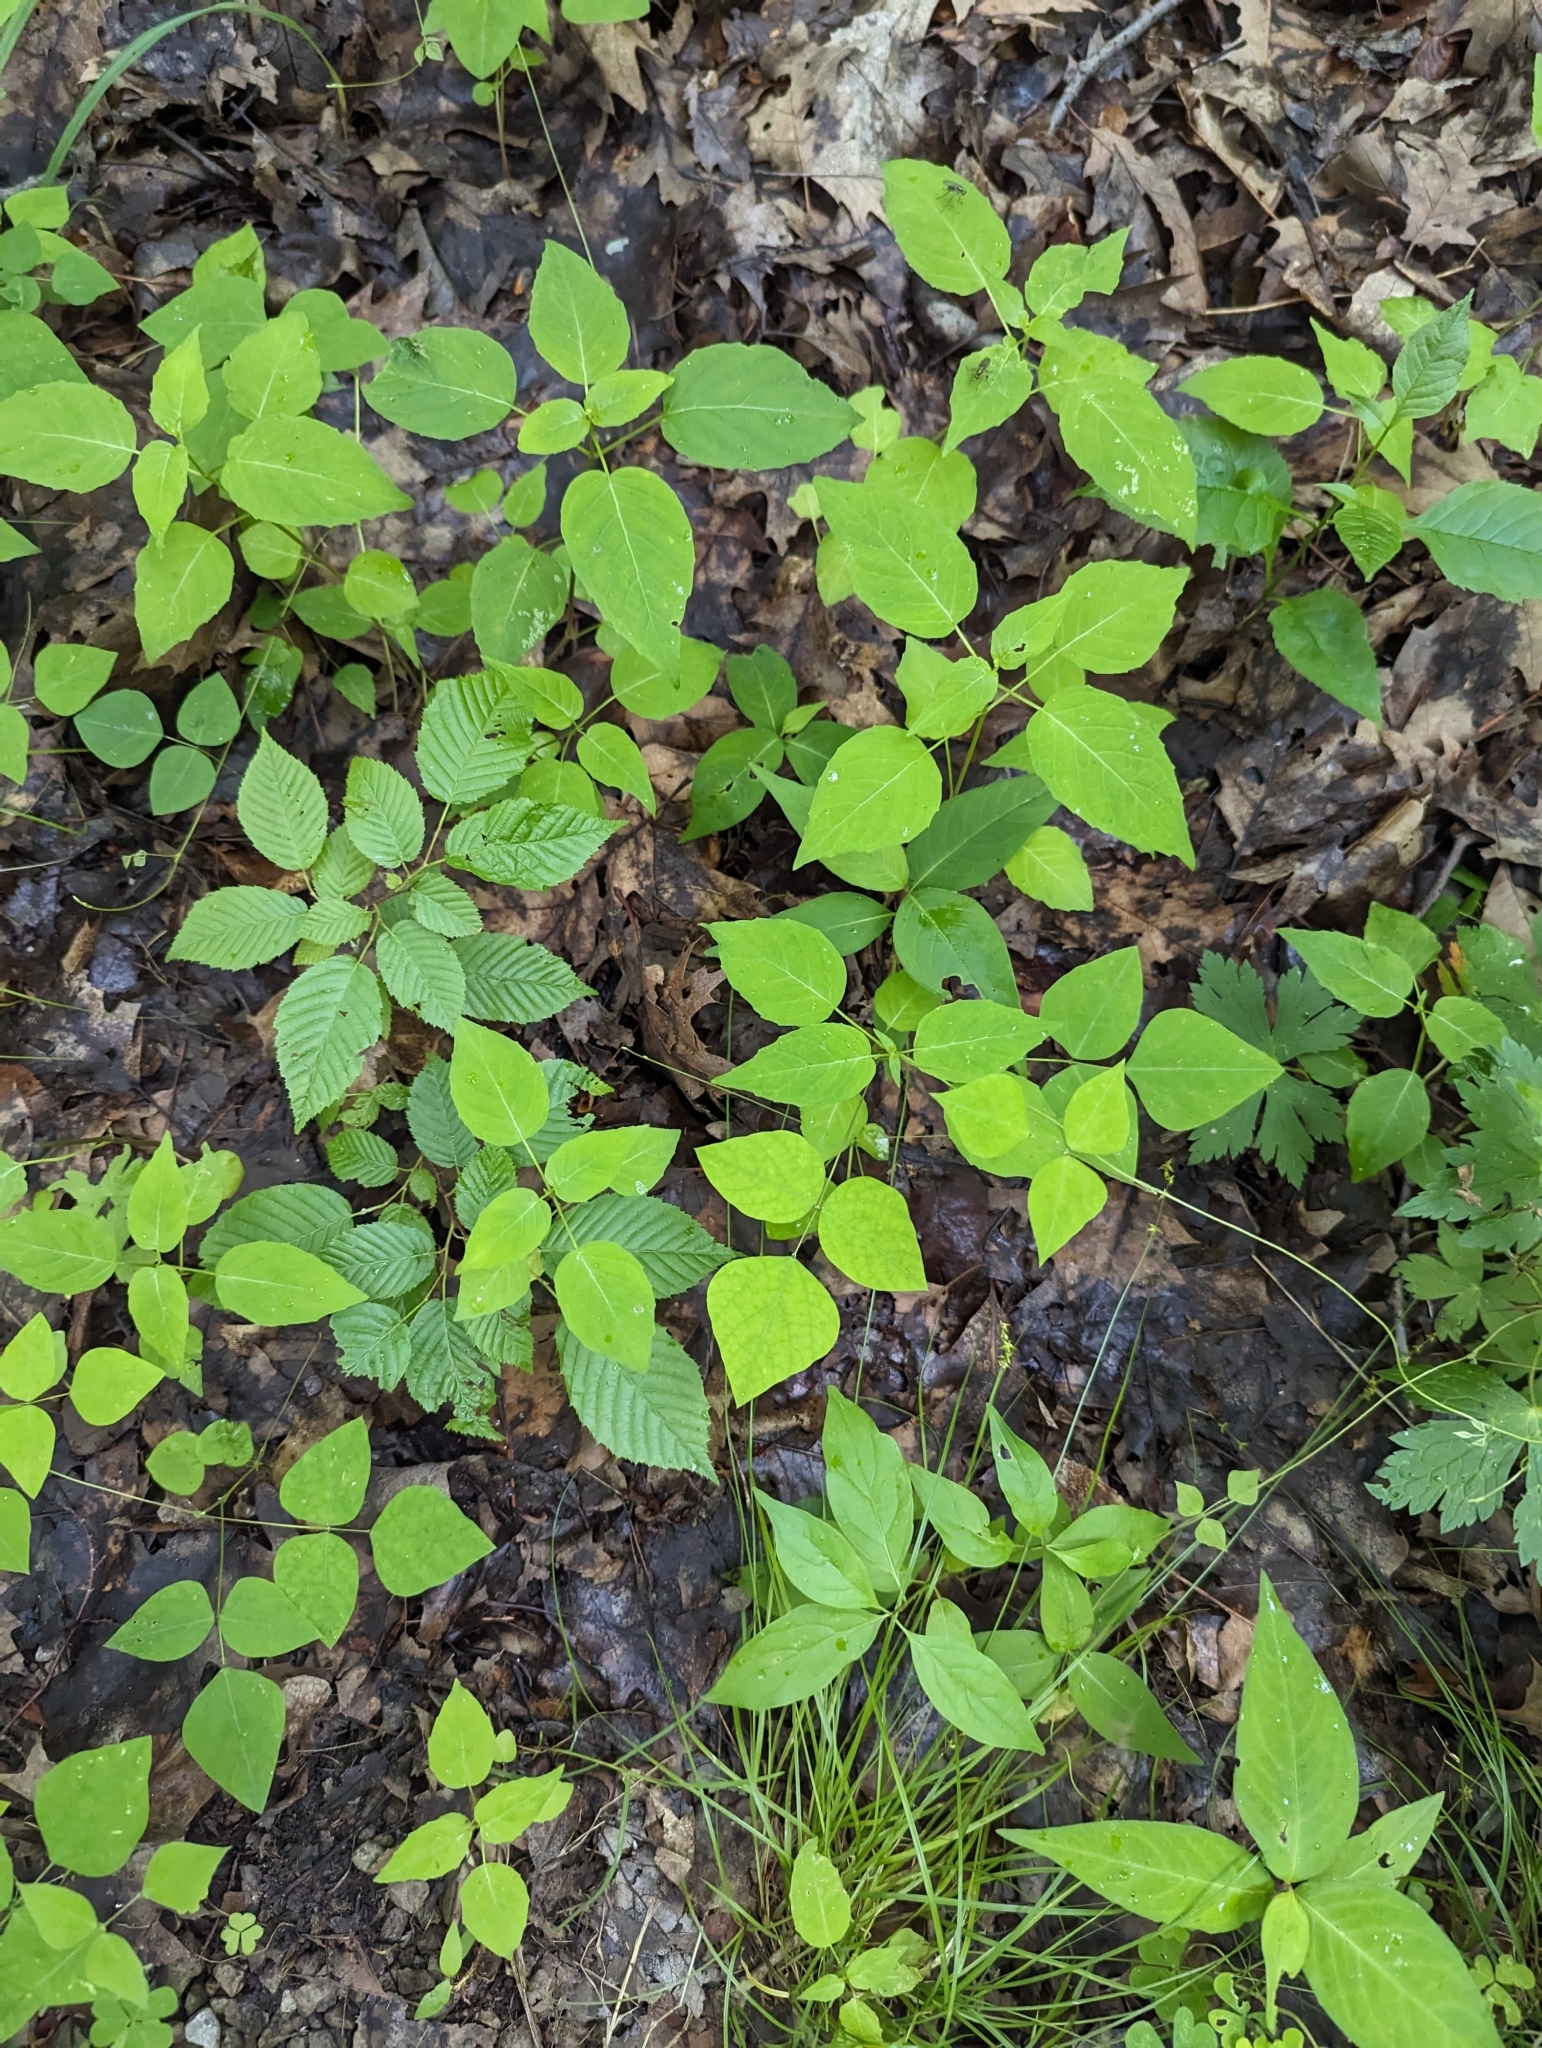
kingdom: Plantae
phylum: Tracheophyta
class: Magnoliopsida
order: Fabales
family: Fabaceae
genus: Amphicarpaea
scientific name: Amphicarpaea bracteata
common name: American hog peanut
